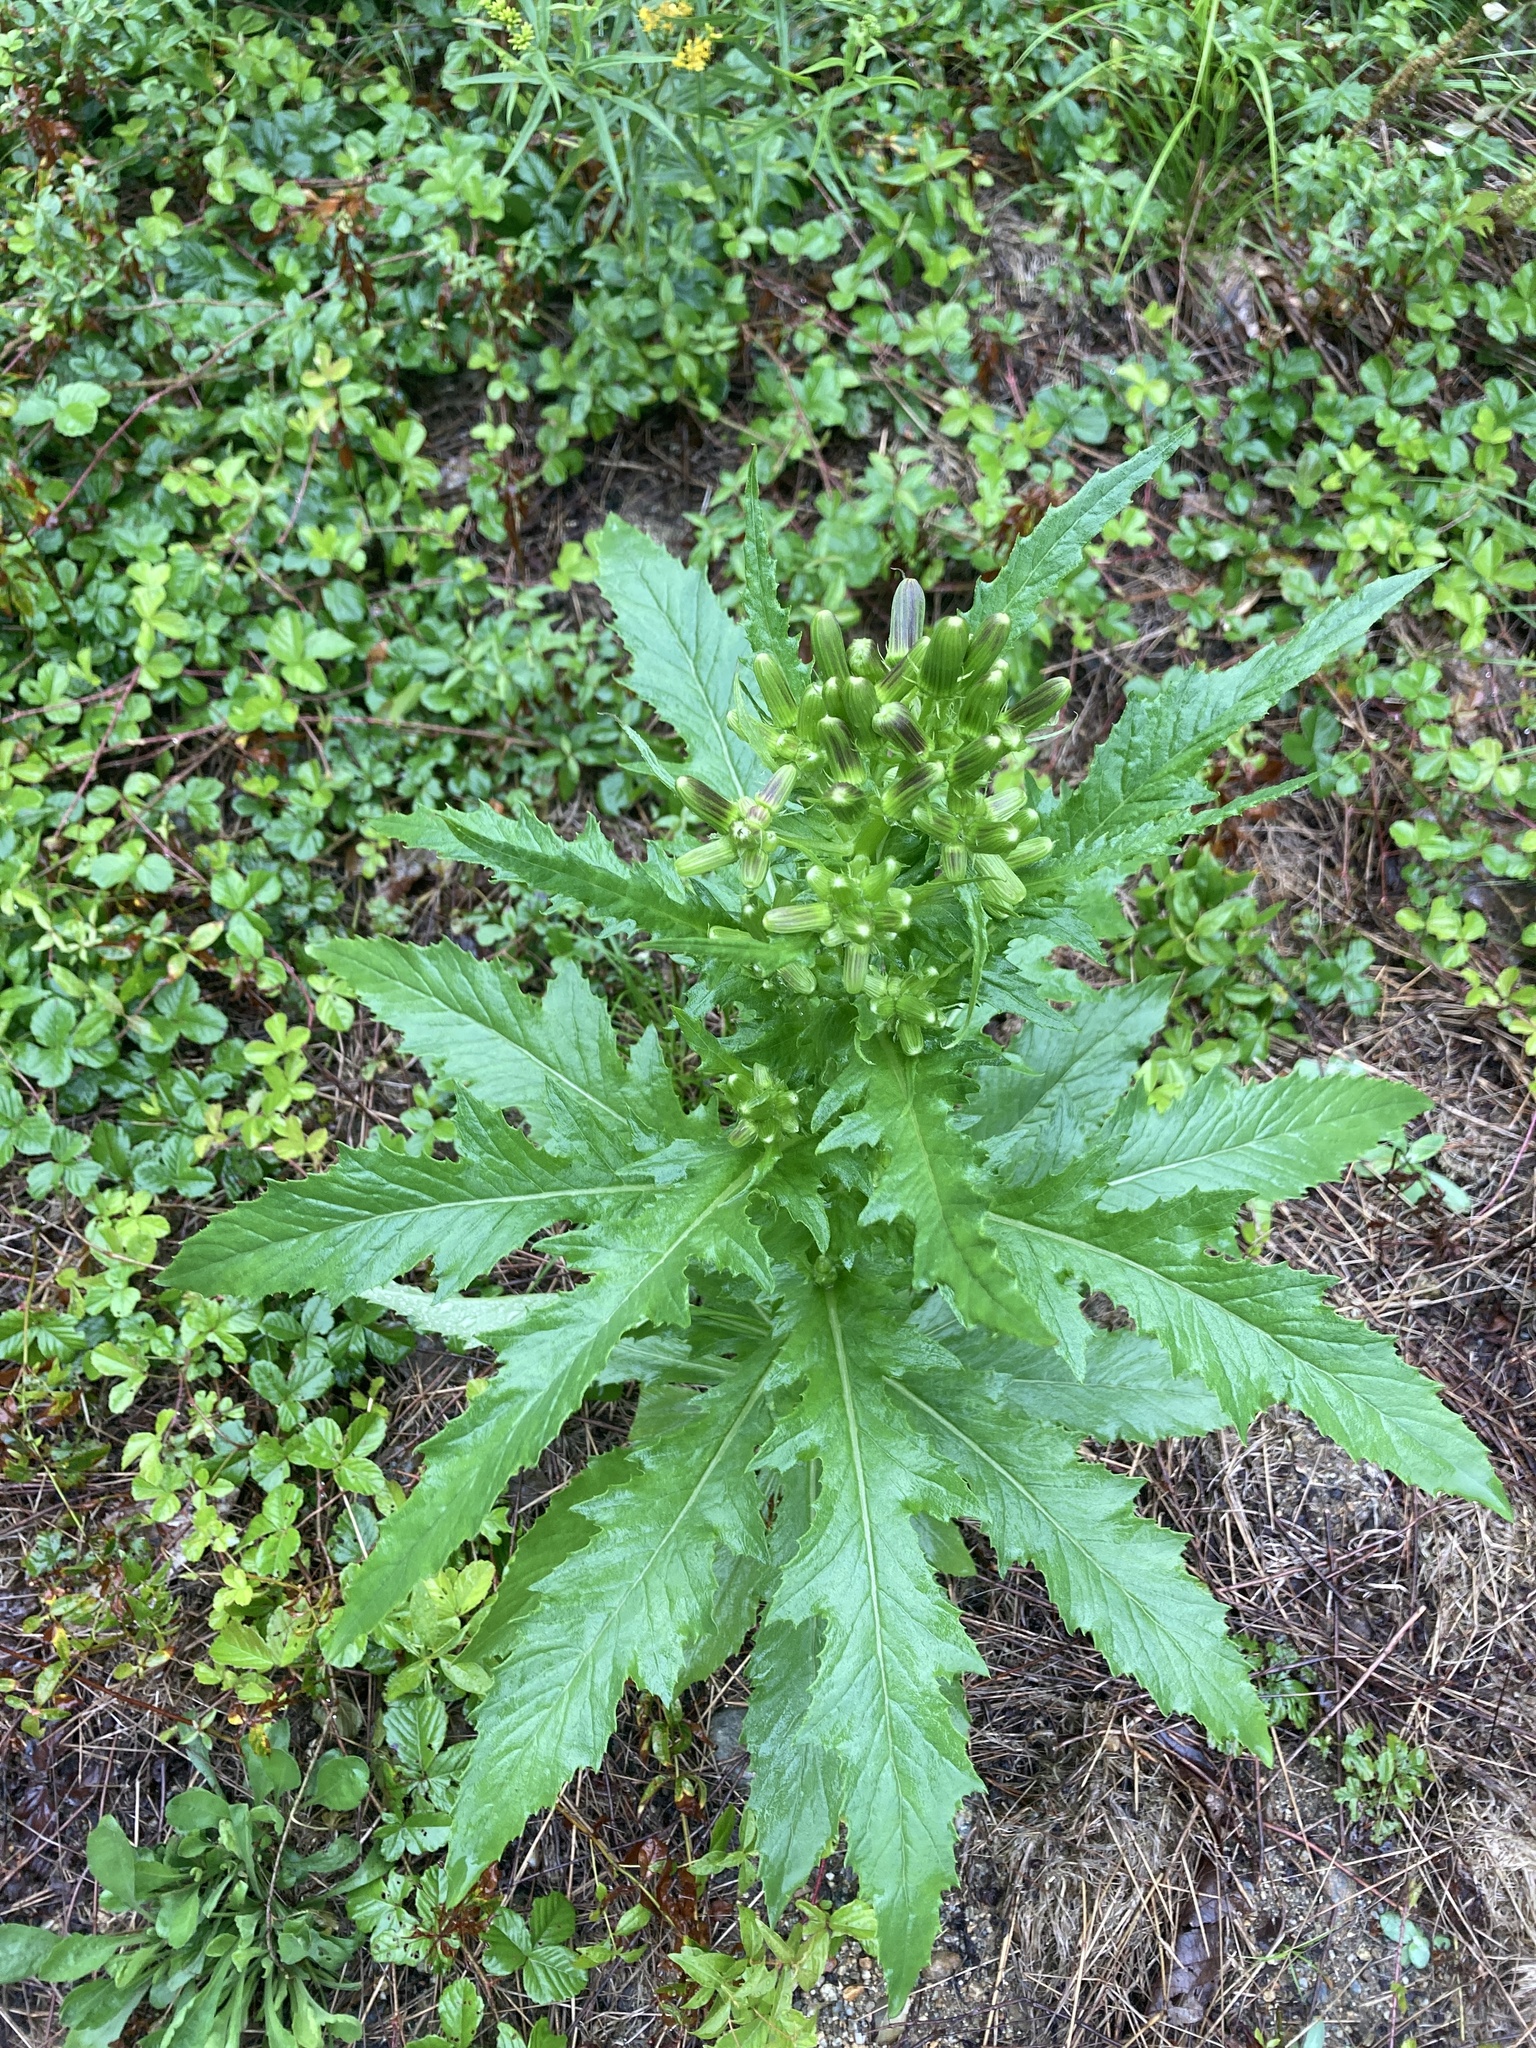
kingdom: Plantae
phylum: Tracheophyta
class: Magnoliopsida
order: Asterales
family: Asteraceae
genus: Erechtites
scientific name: Erechtites hieraciifolius
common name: American burnweed
